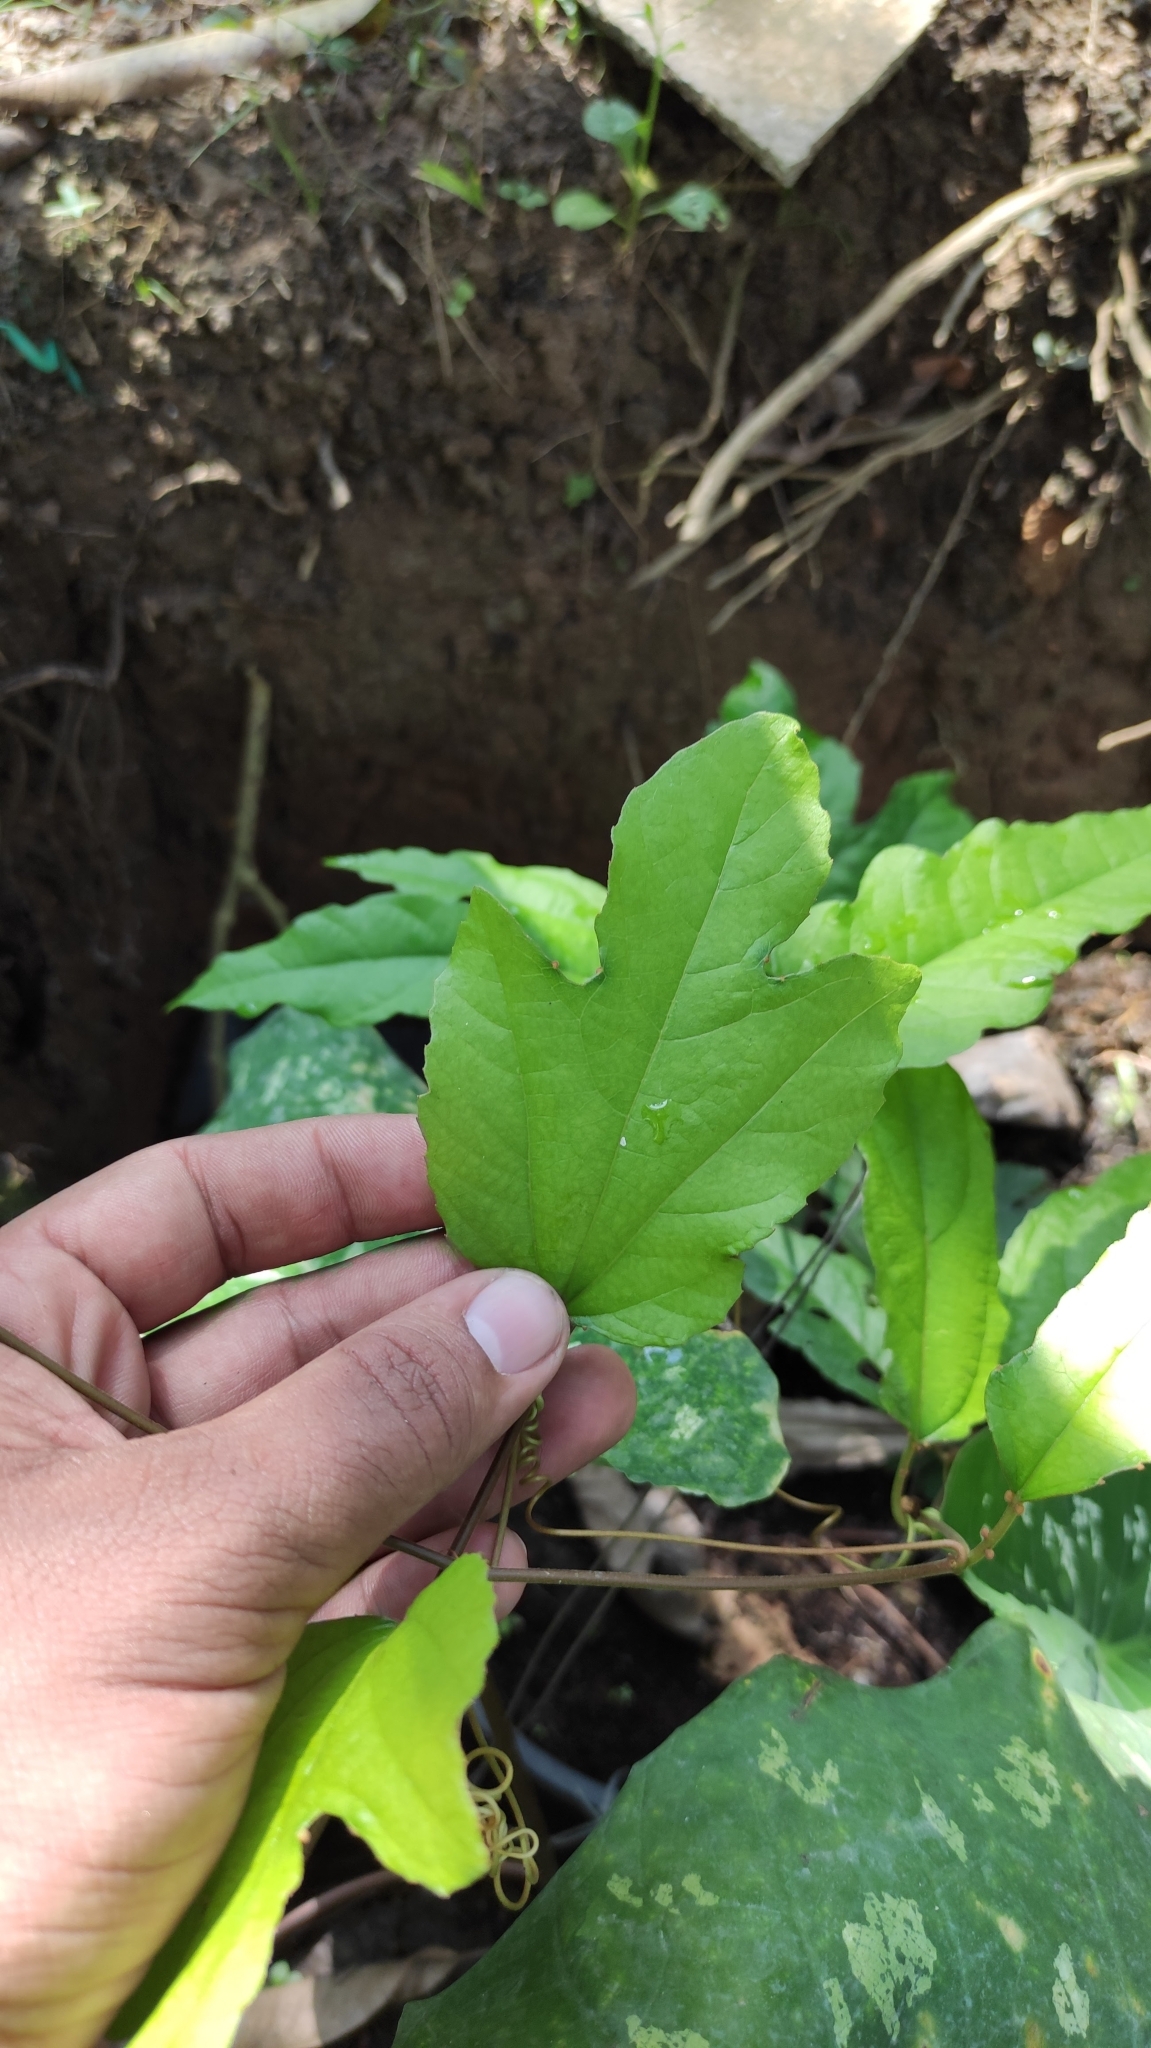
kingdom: Plantae
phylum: Tracheophyta
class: Magnoliopsida
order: Malpighiales
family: Passifloraceae
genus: Passiflora
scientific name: Passiflora vitifolia
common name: Perfumed passionflower
